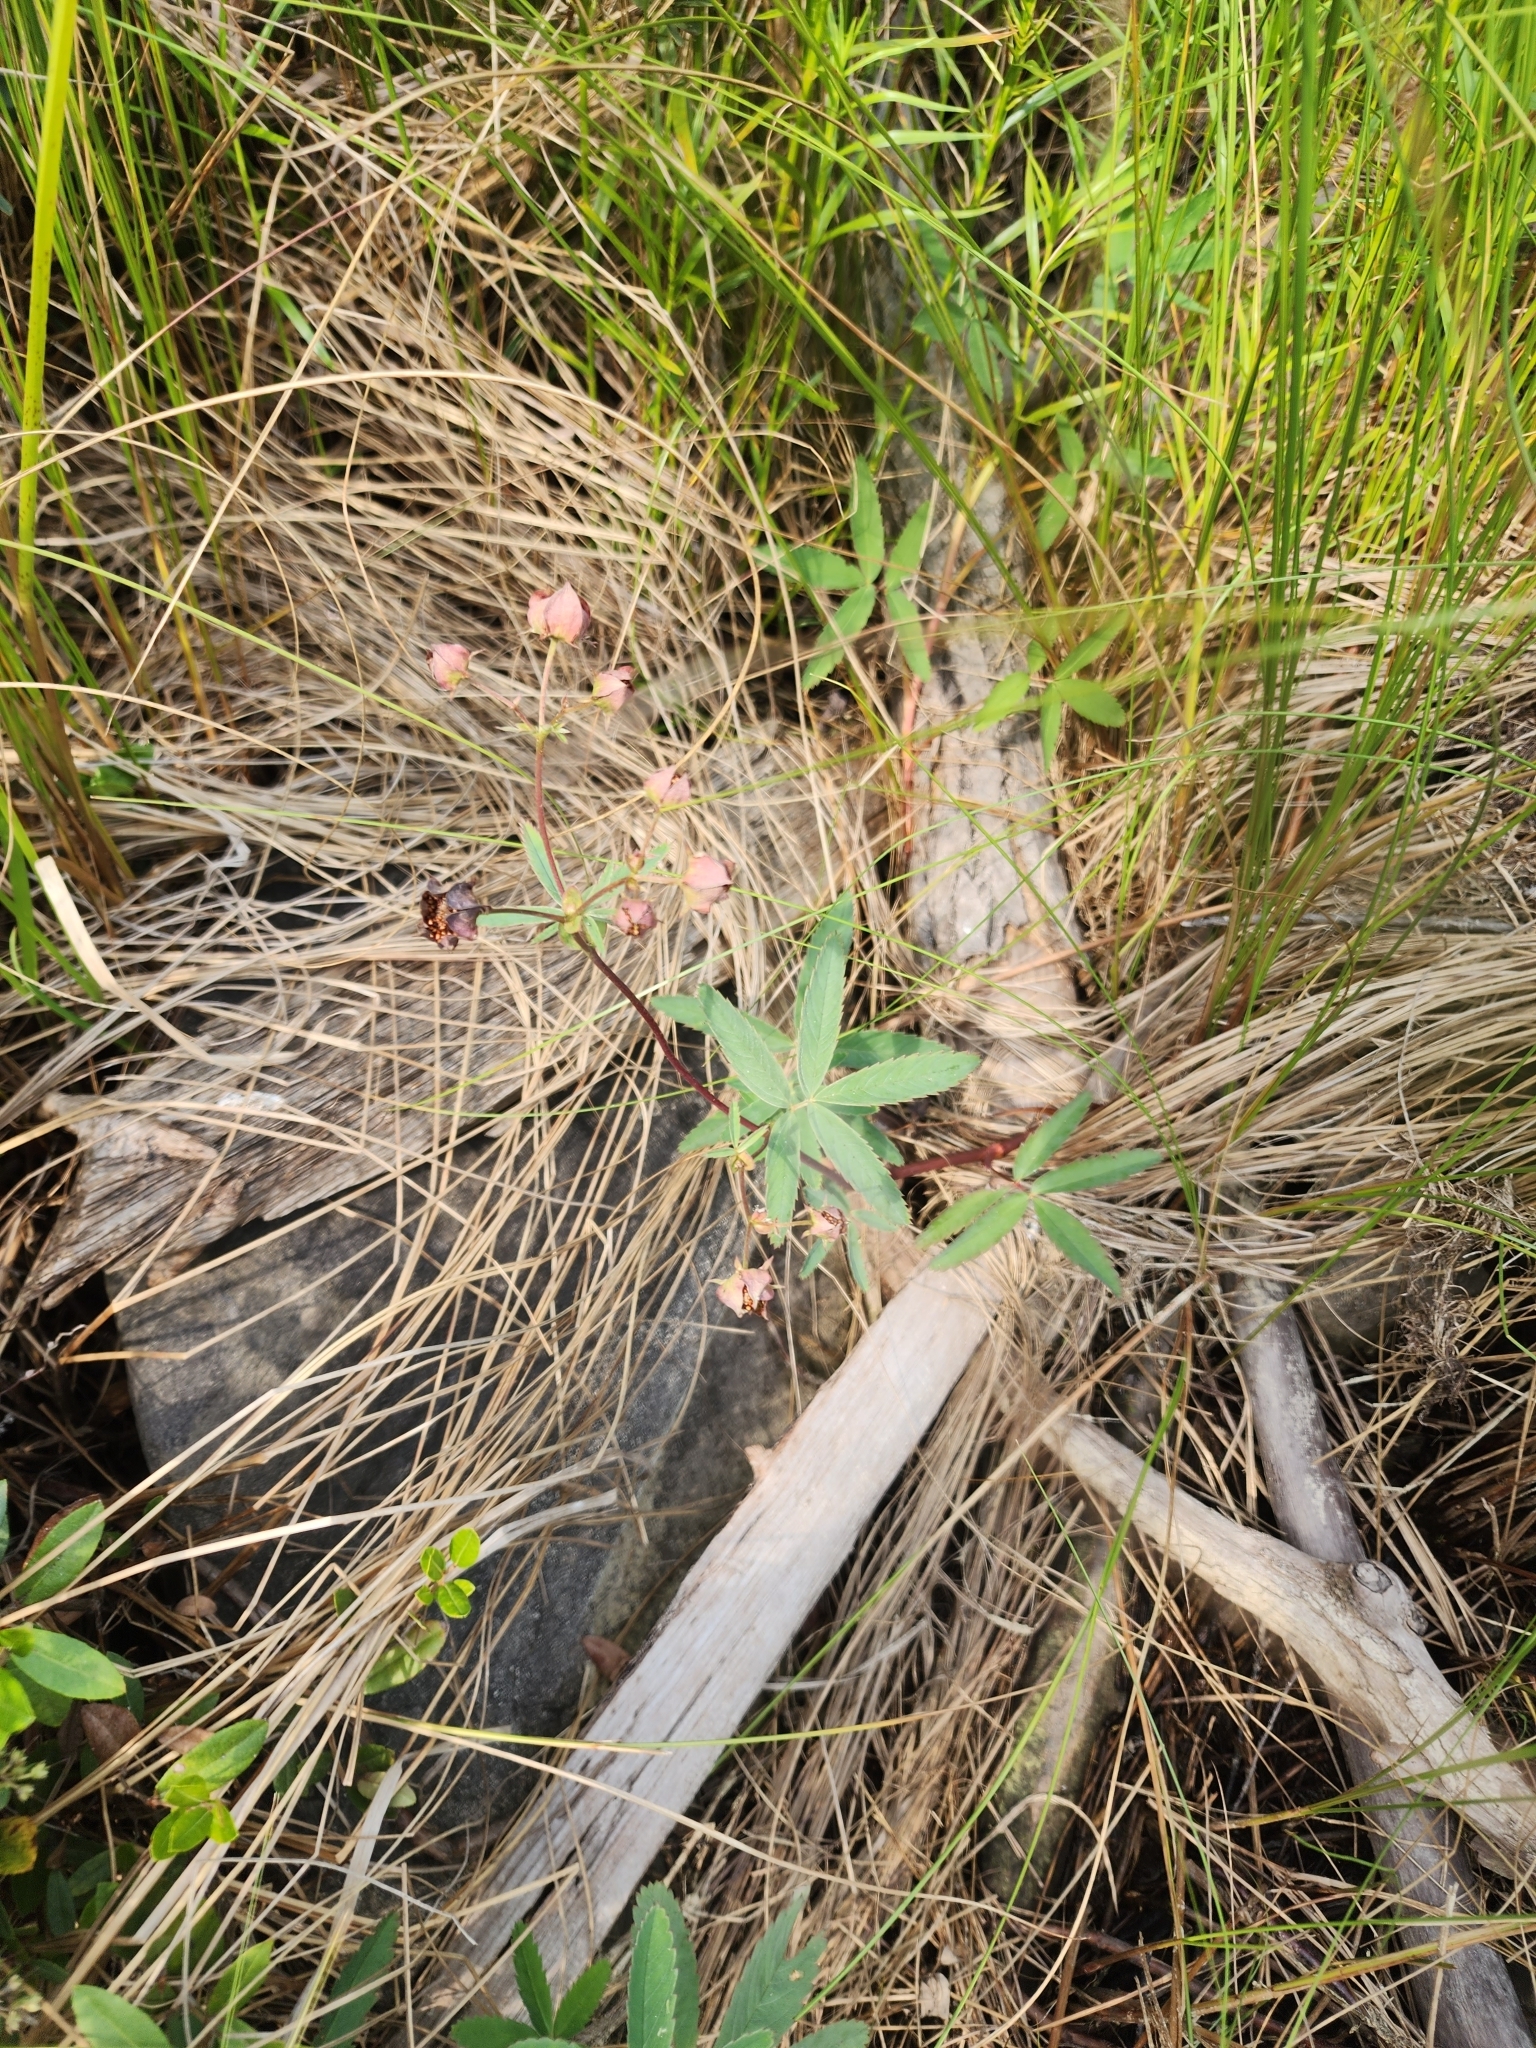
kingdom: Plantae
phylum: Tracheophyta
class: Magnoliopsida
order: Rosales
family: Rosaceae
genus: Comarum
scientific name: Comarum palustre
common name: Marsh cinquefoil
